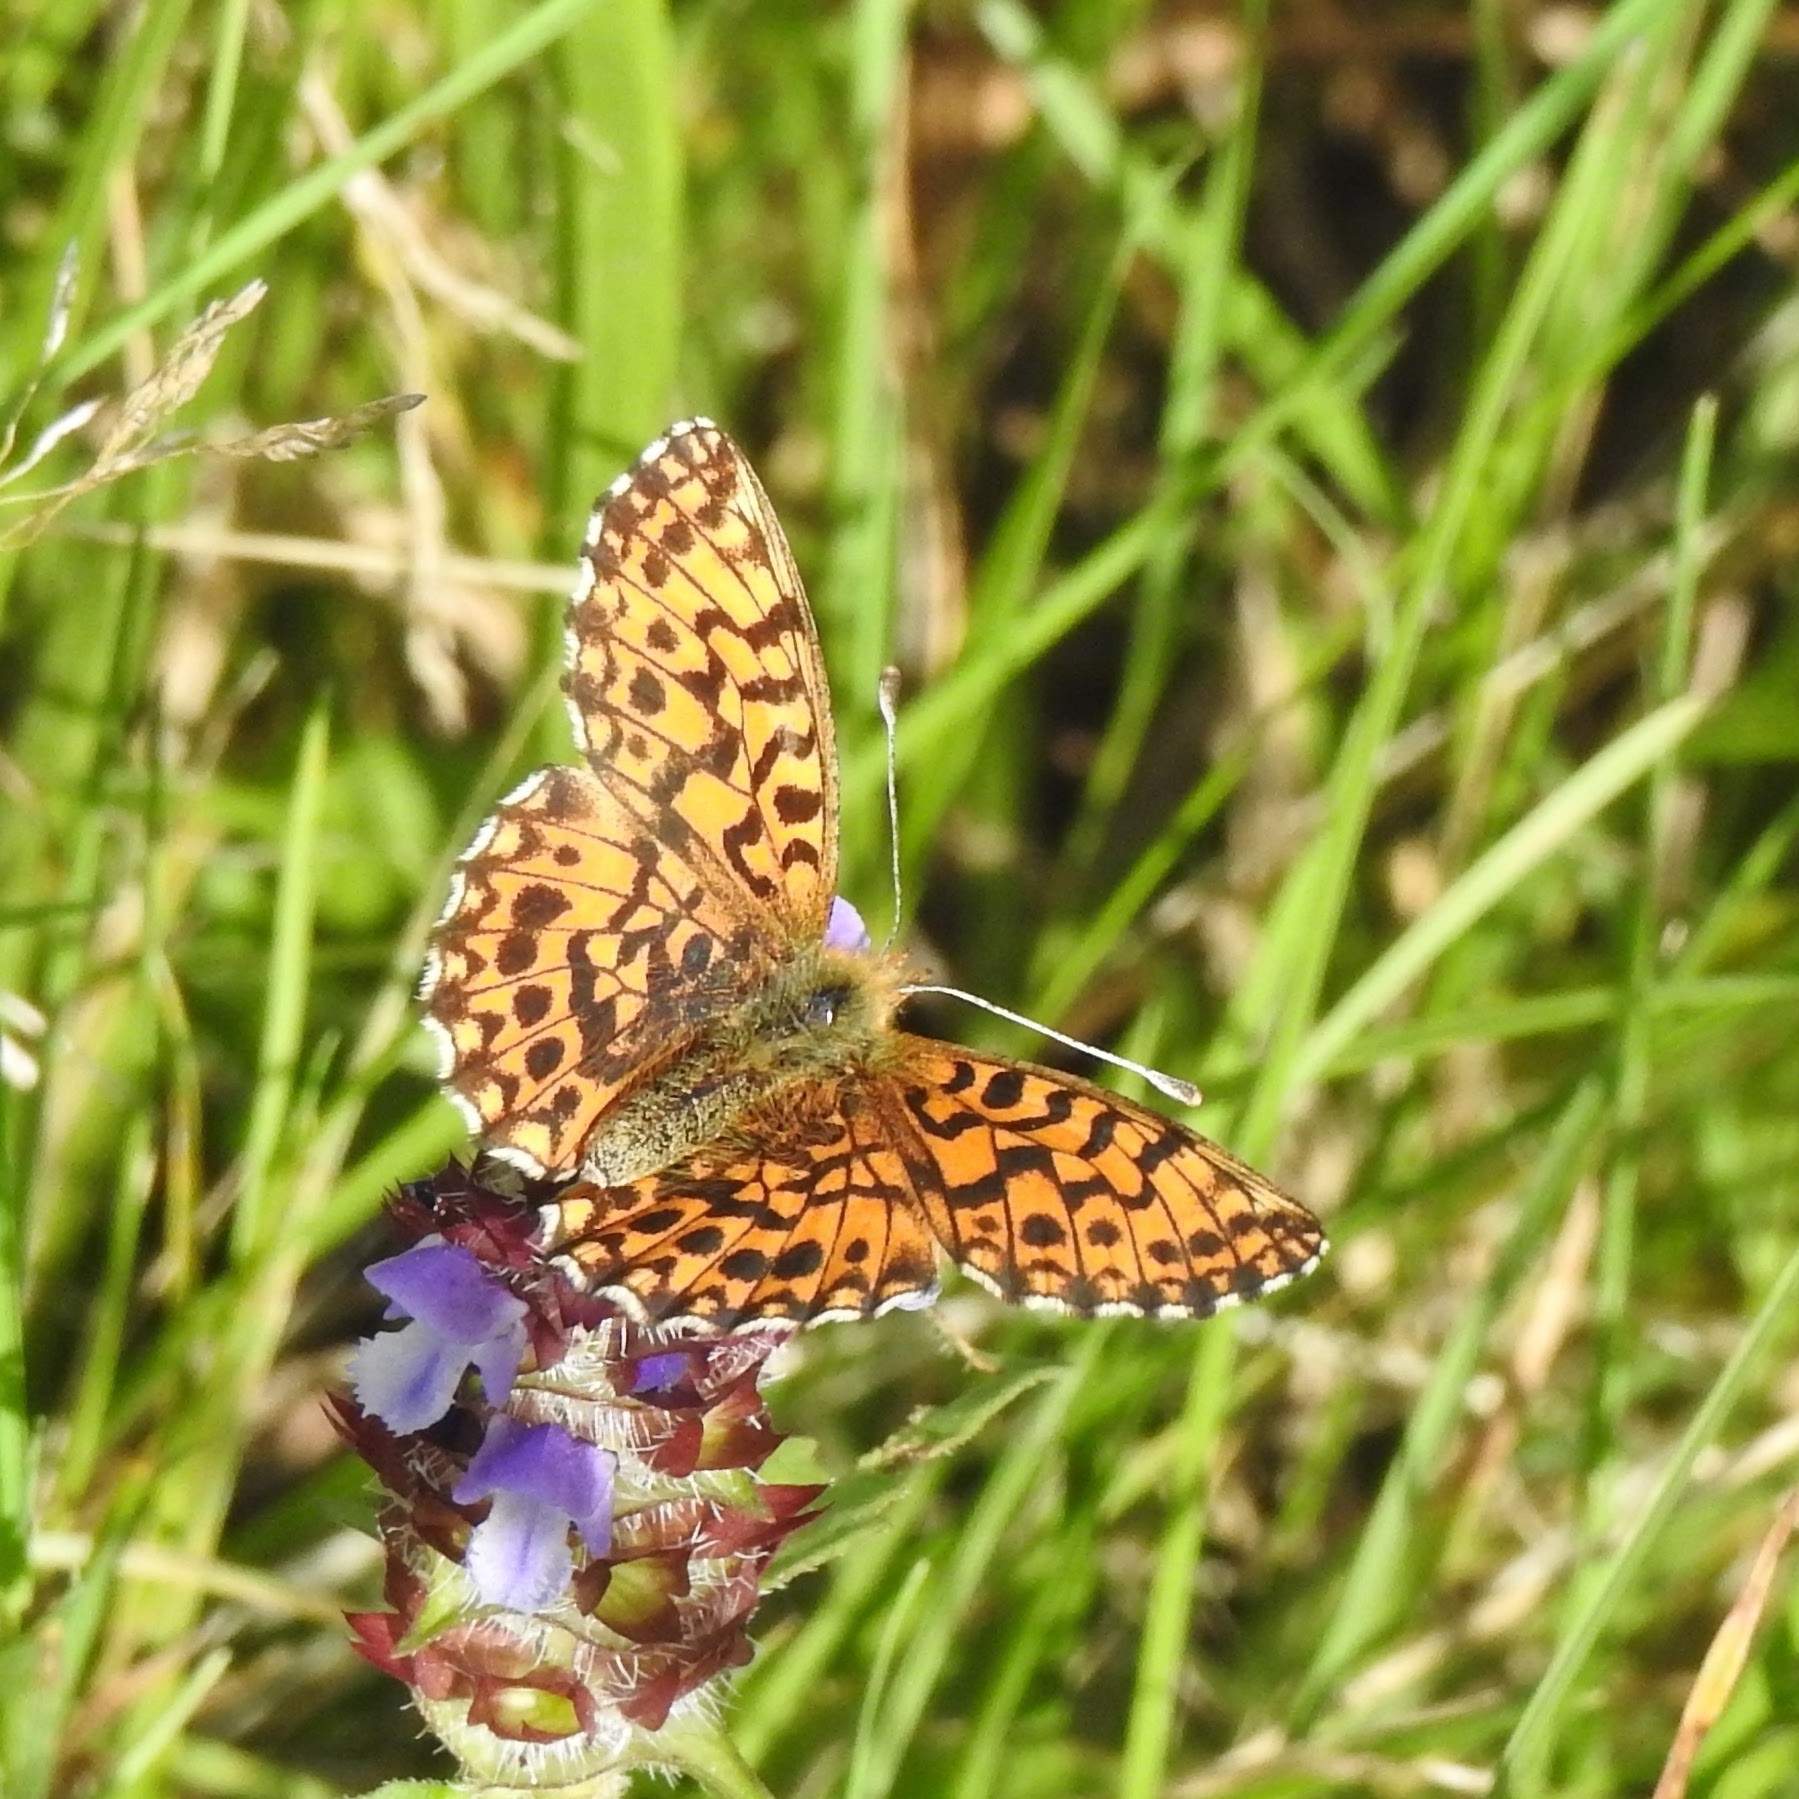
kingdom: Animalia
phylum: Arthropoda
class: Insecta
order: Lepidoptera
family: Nymphalidae
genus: Boloria
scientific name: Boloria dia
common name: Weaver's fritillary
